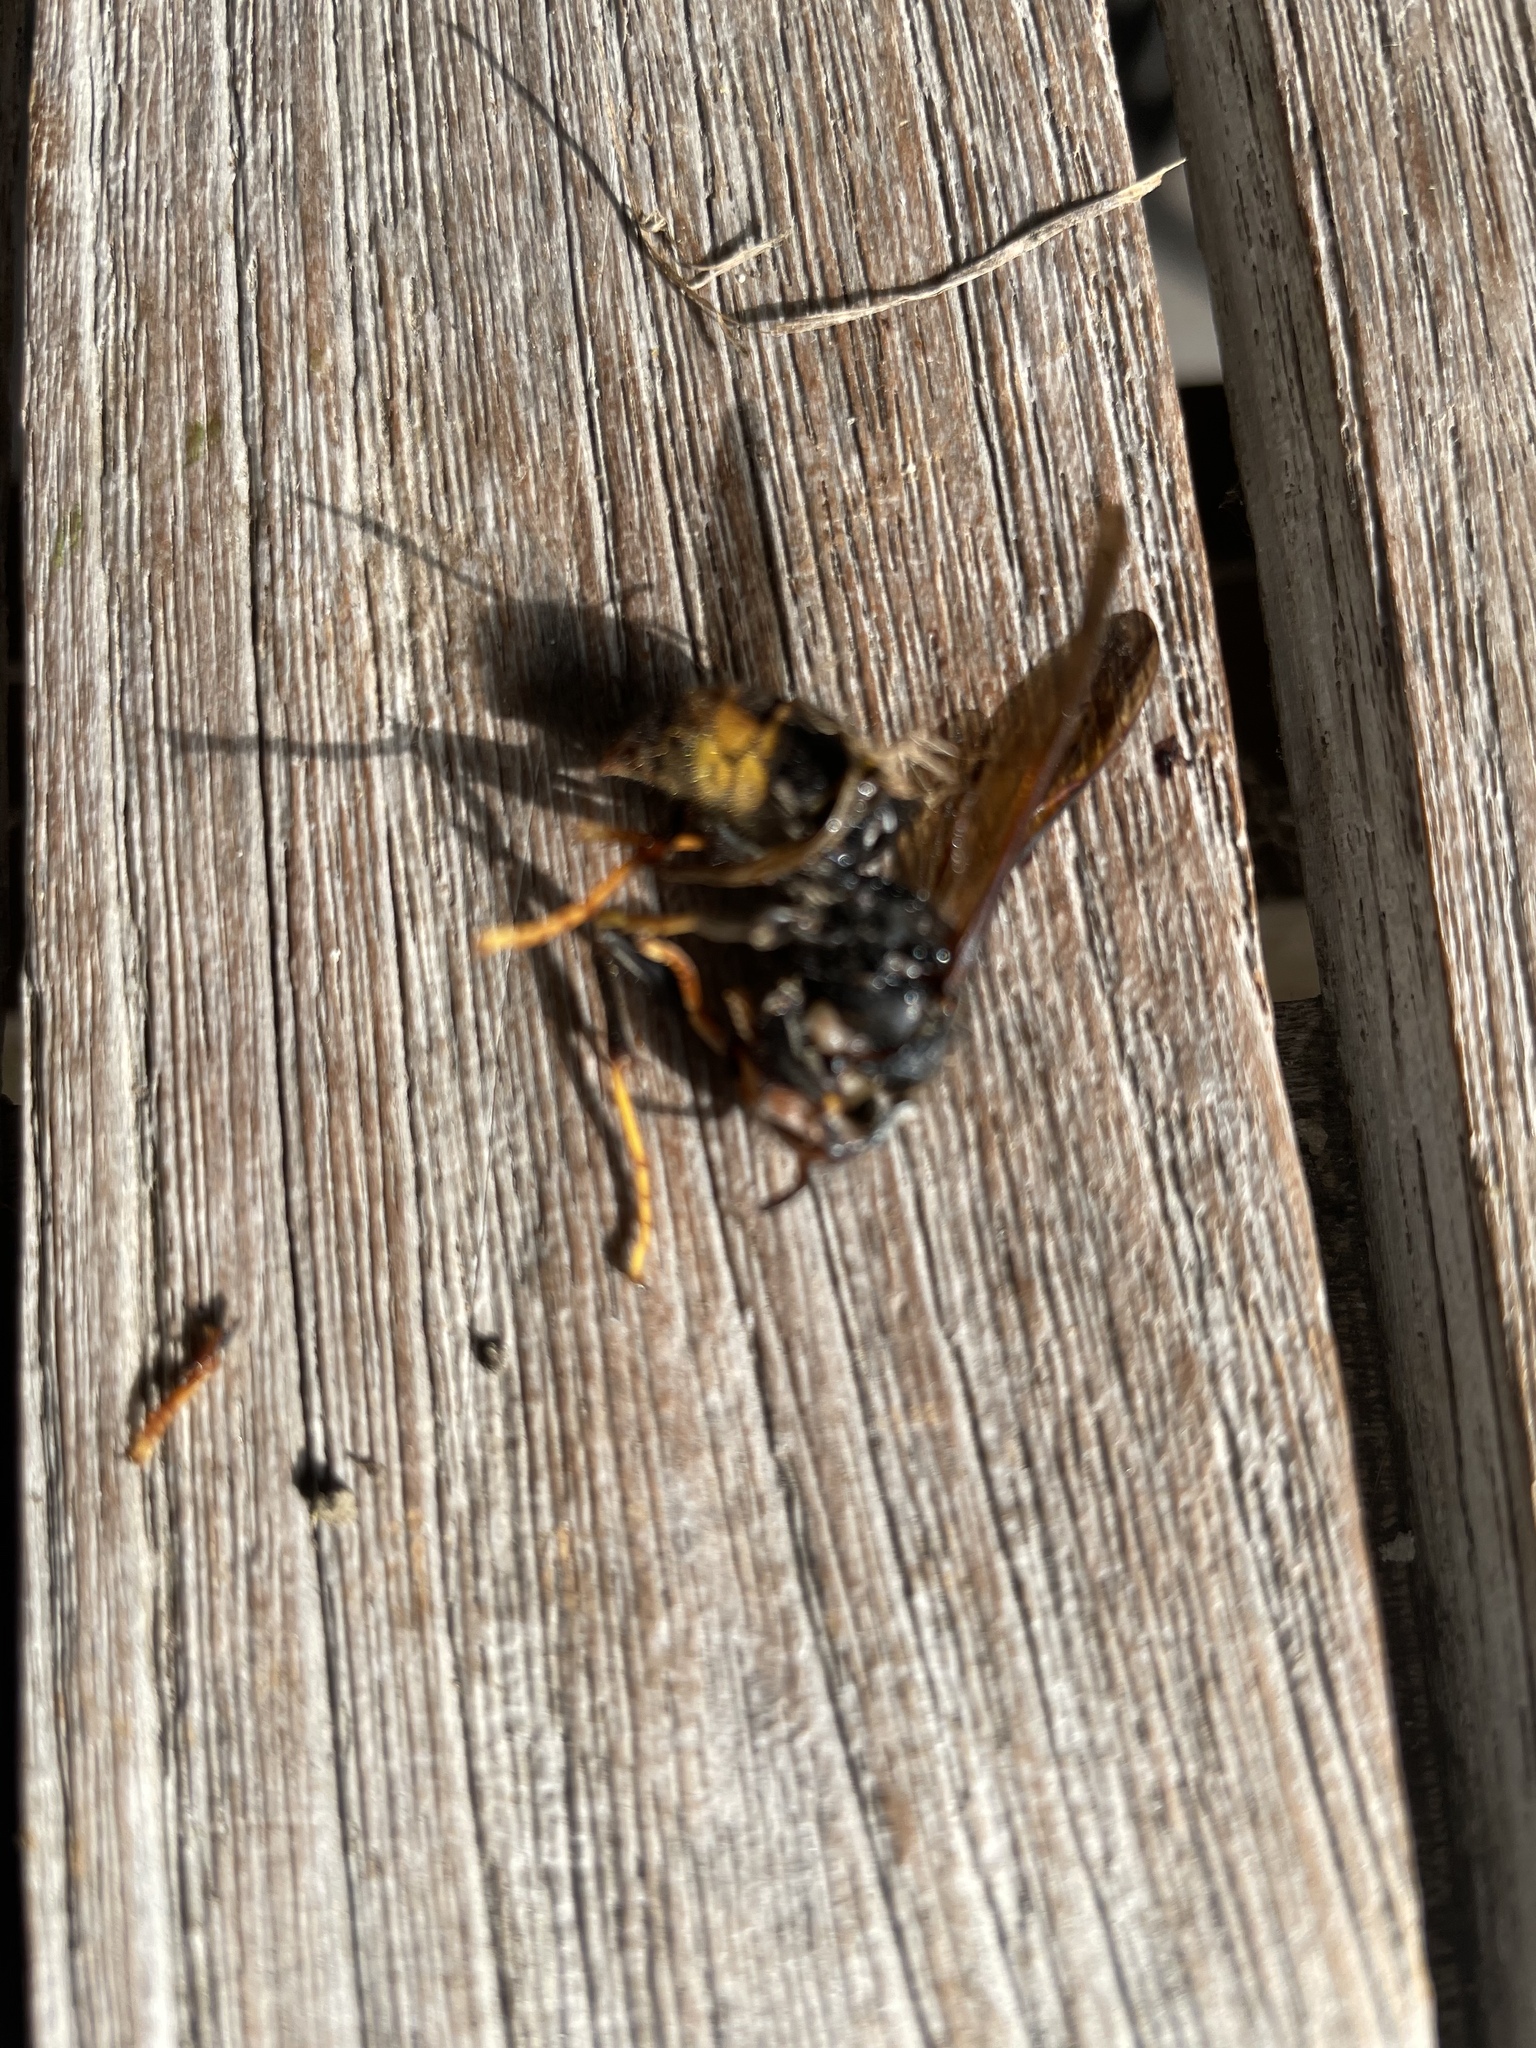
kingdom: Animalia
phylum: Arthropoda
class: Insecta
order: Hymenoptera
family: Vespidae
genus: Vespa
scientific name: Vespa velutina
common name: Asian hornet
